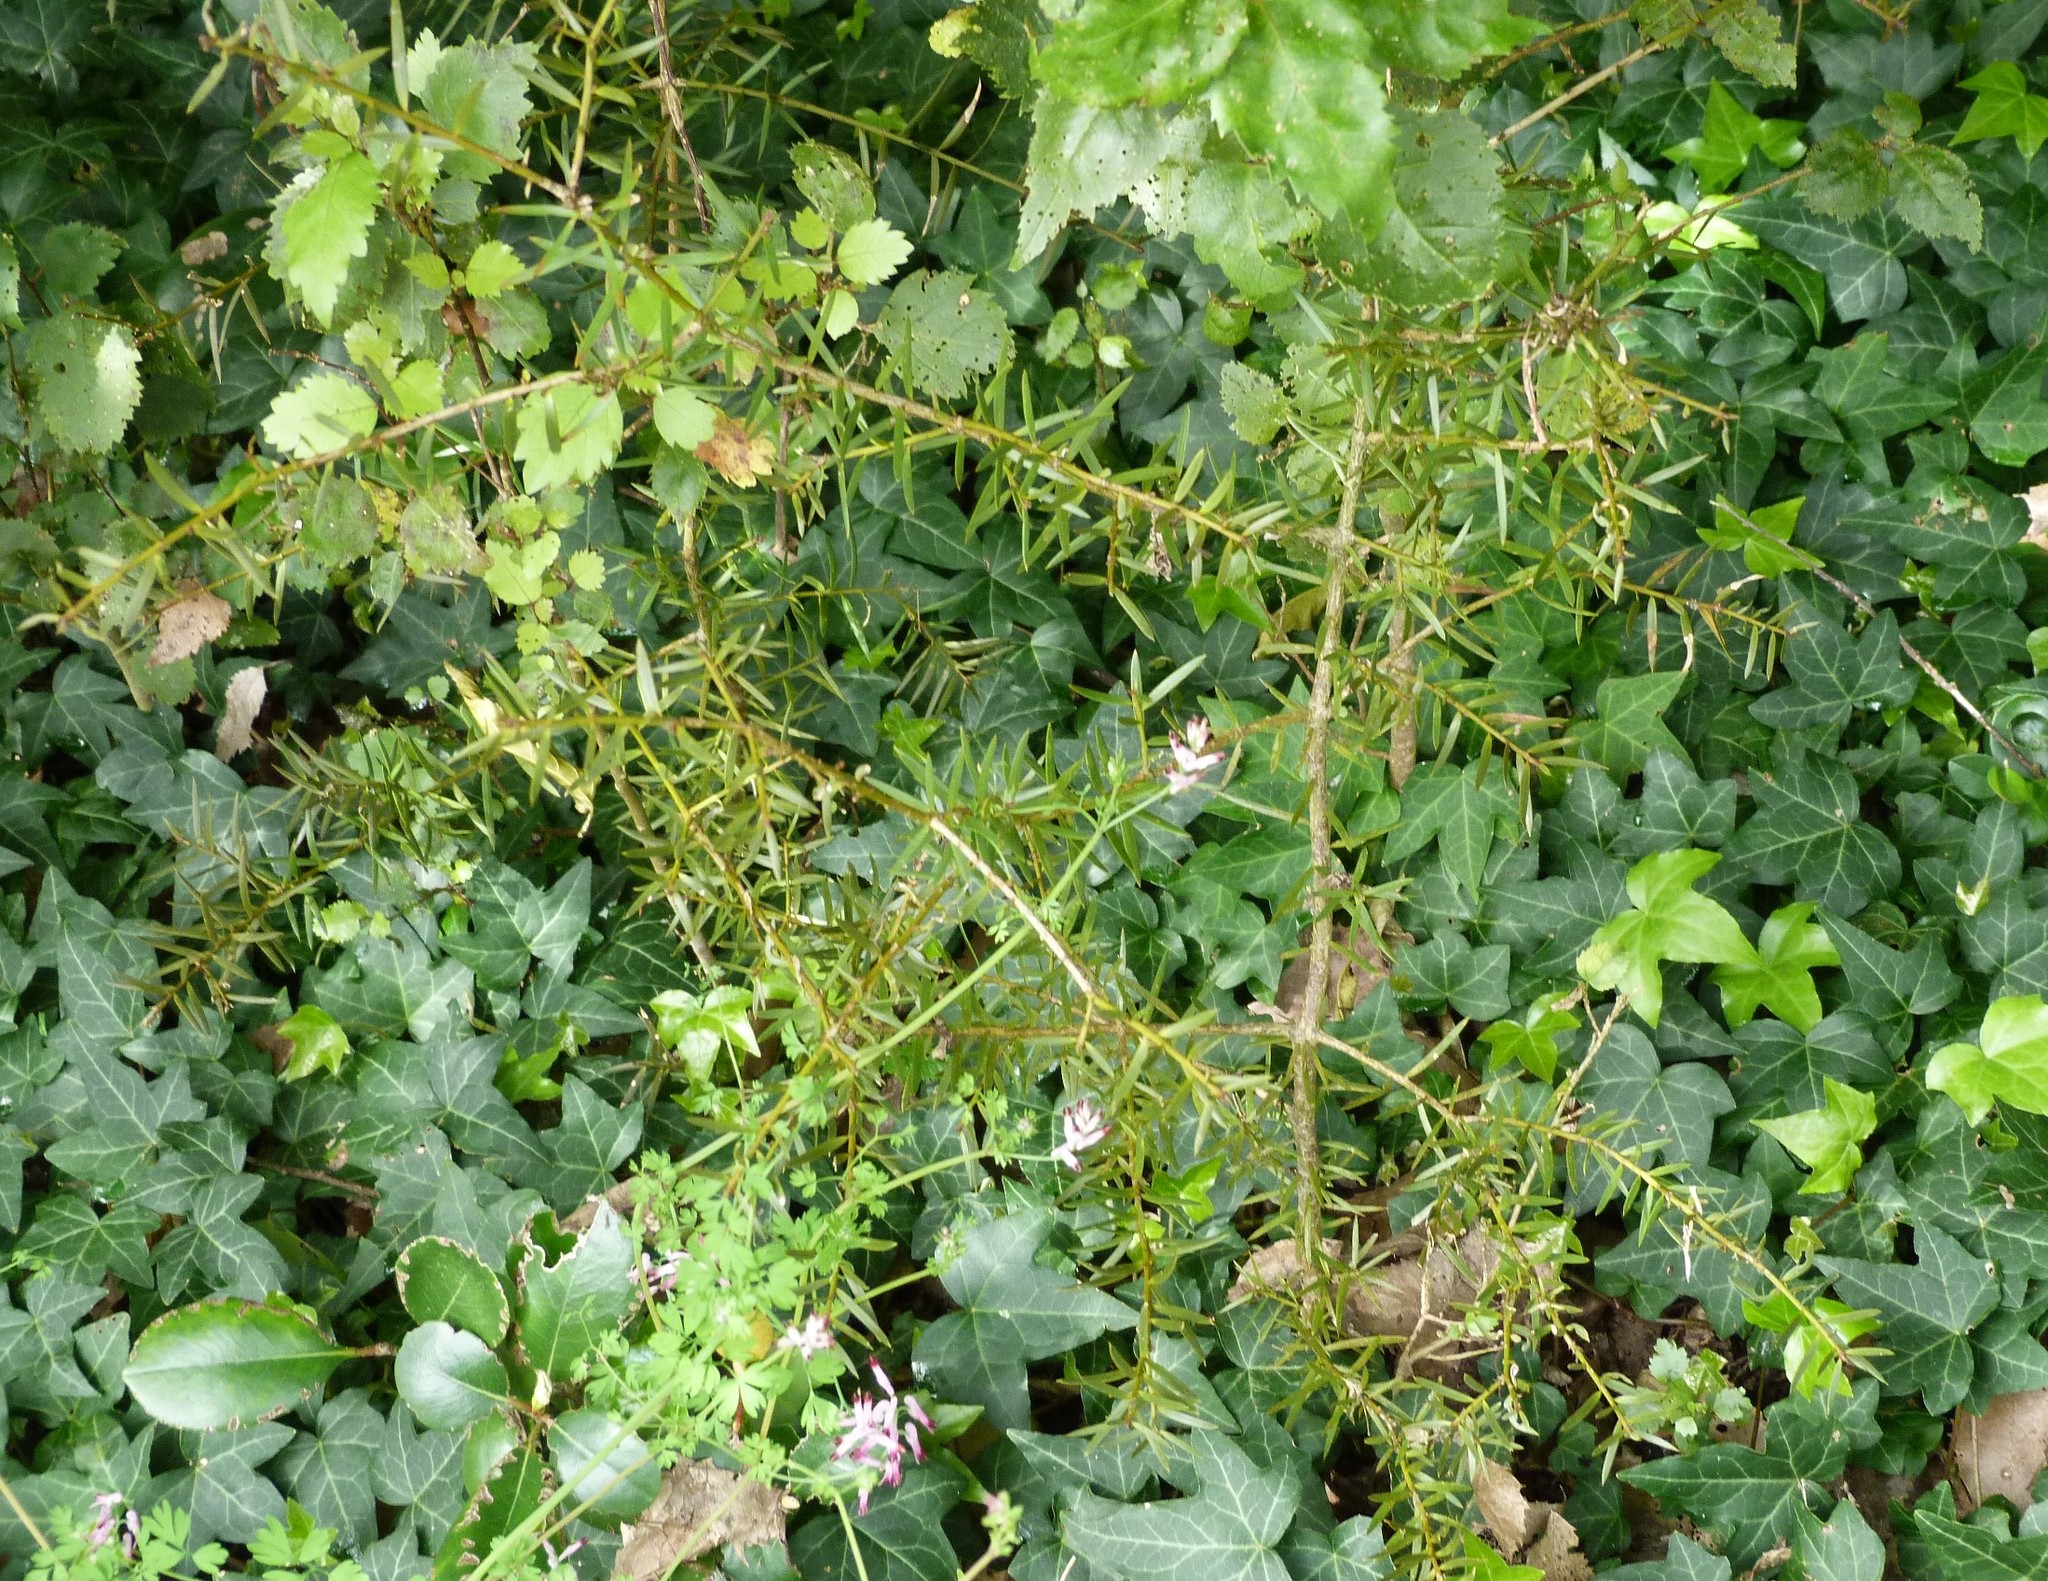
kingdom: Plantae
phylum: Tracheophyta
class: Pinopsida
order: Pinales
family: Podocarpaceae
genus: Podocarpus
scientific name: Podocarpus totara
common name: Totara
